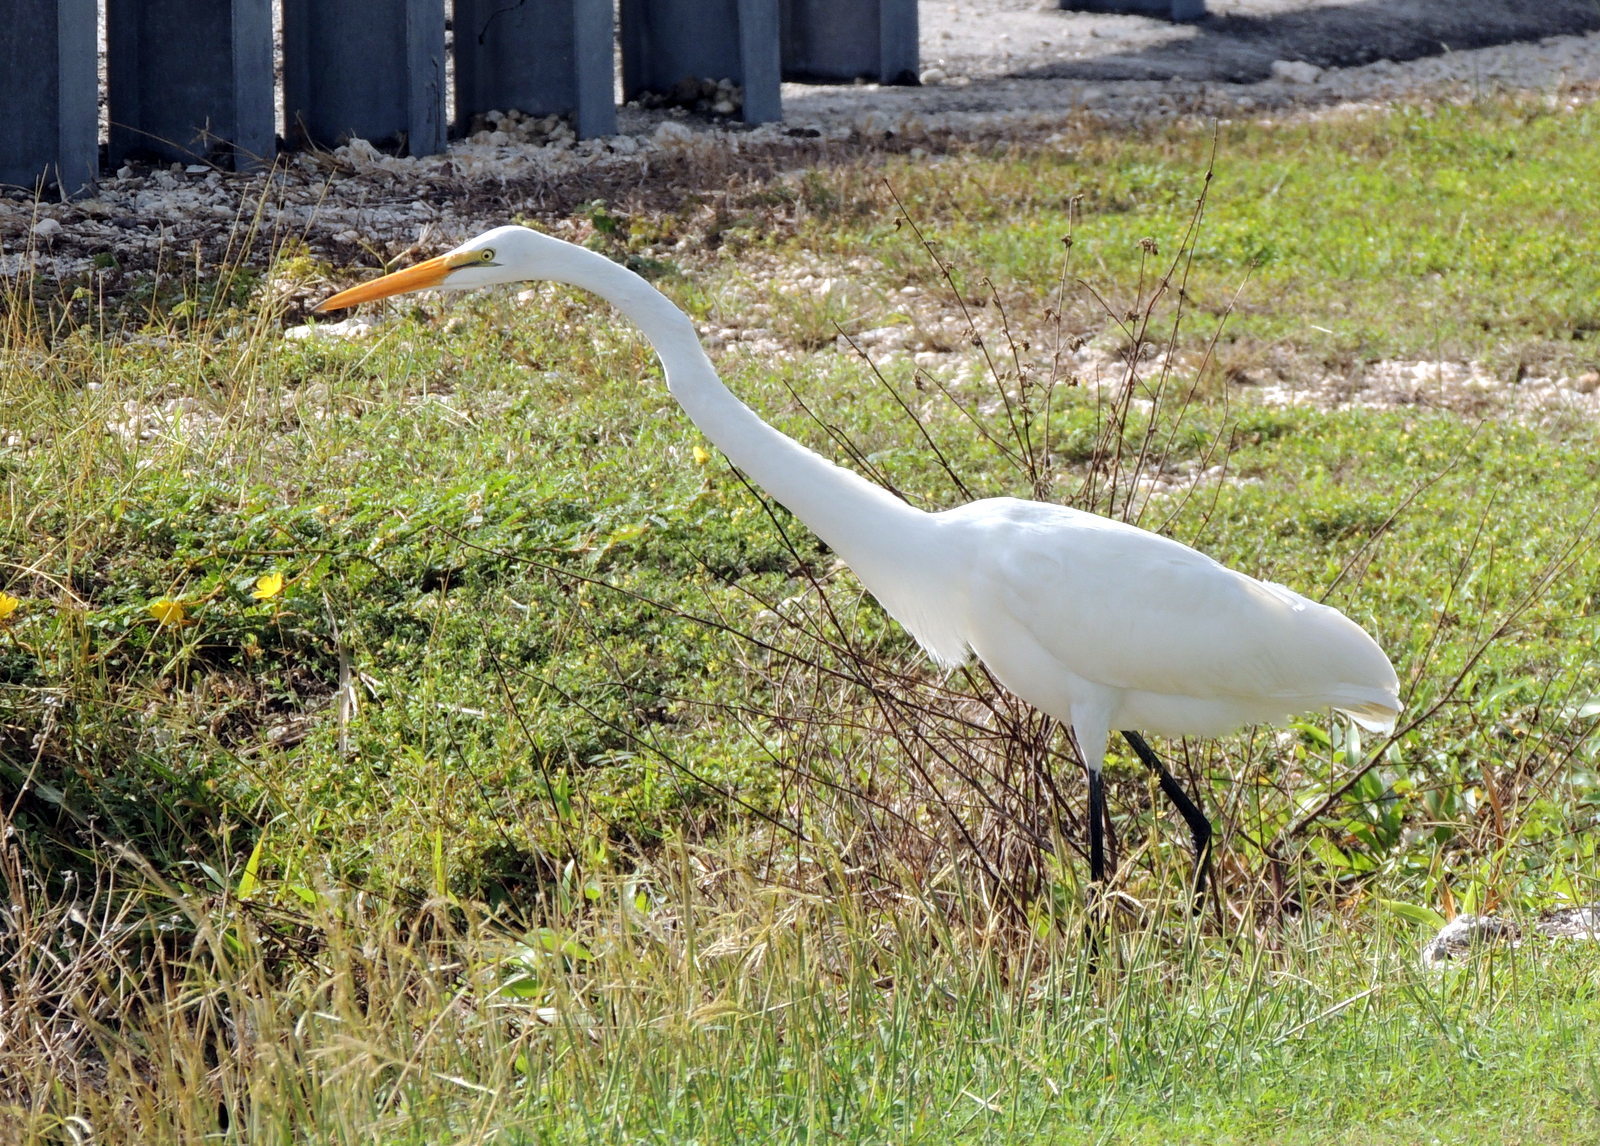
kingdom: Animalia
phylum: Chordata
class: Aves
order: Pelecaniformes
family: Ardeidae
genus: Ardea
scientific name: Ardea alba
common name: Great egret
